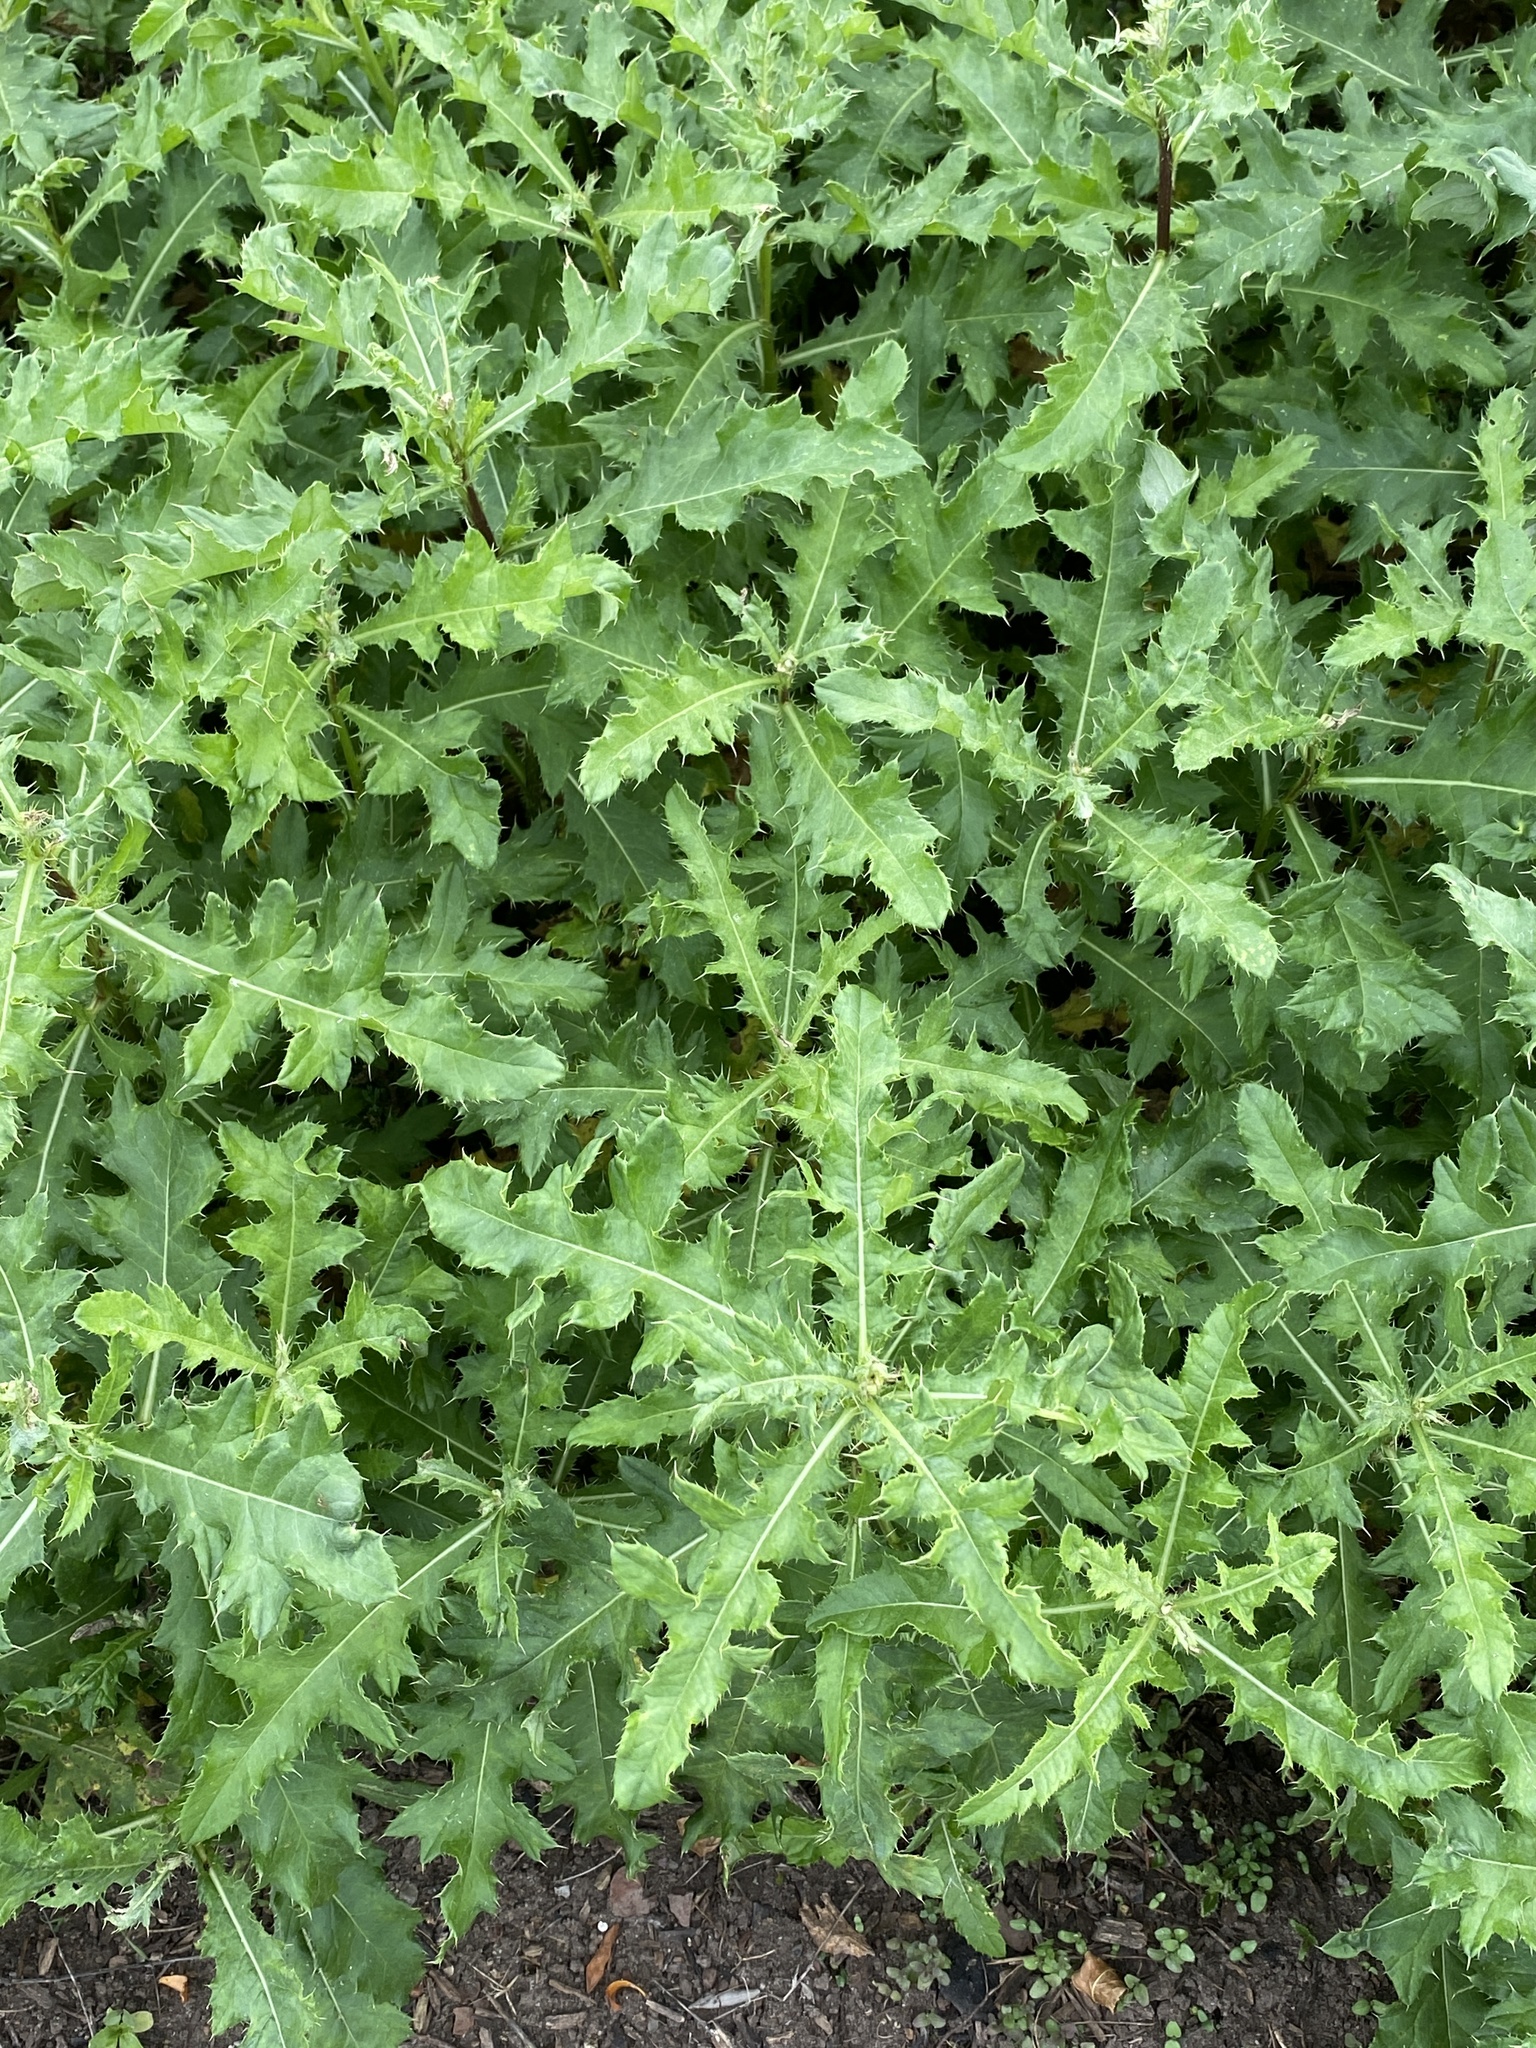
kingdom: Plantae
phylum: Tracheophyta
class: Magnoliopsida
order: Asterales
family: Asteraceae
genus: Cirsium
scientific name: Cirsium arvense
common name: Creeping thistle
